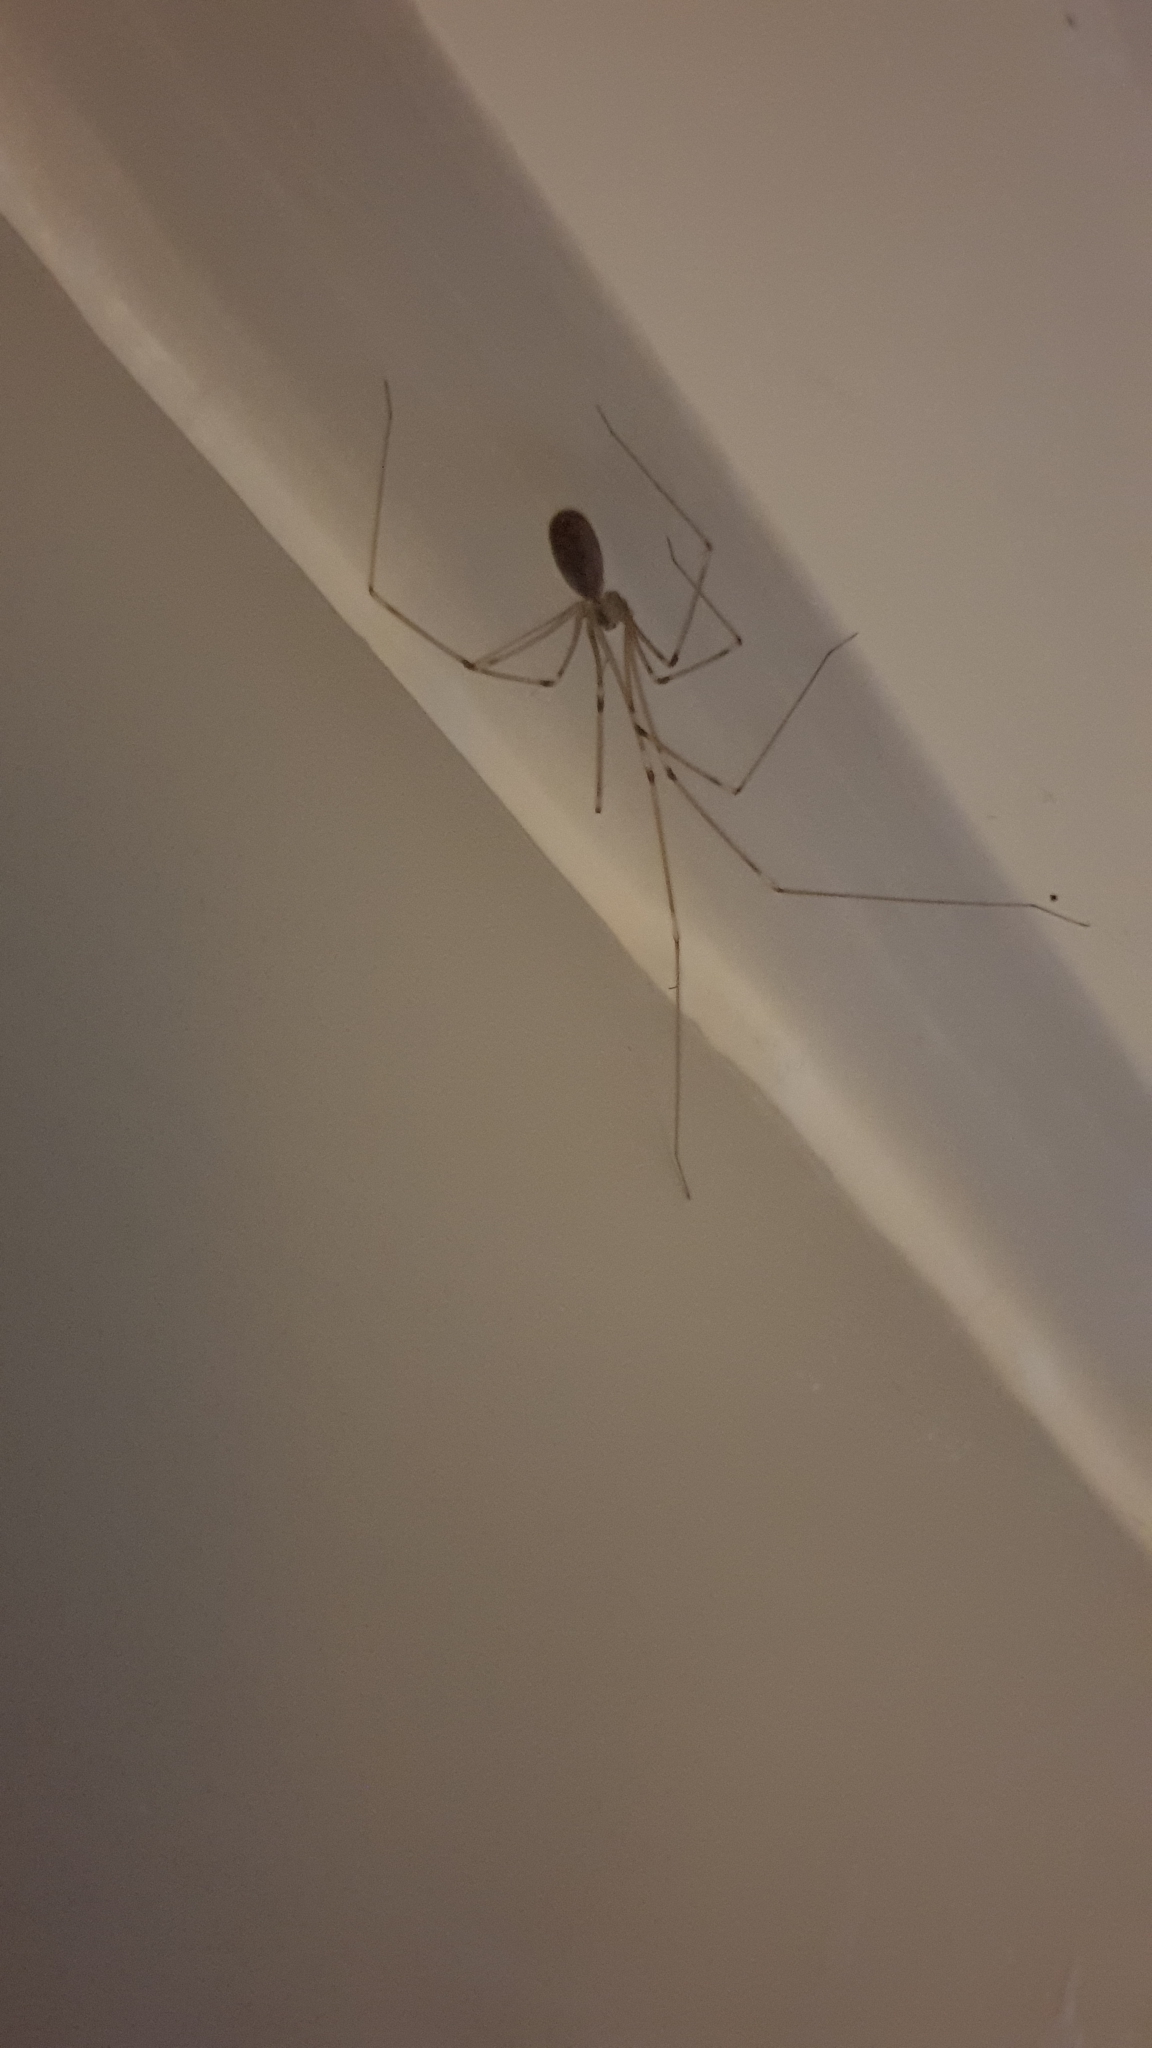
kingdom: Animalia
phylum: Arthropoda
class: Arachnida
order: Araneae
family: Pholcidae
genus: Pholcus
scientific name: Pholcus phalangioides
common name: Longbodied cellar spider
